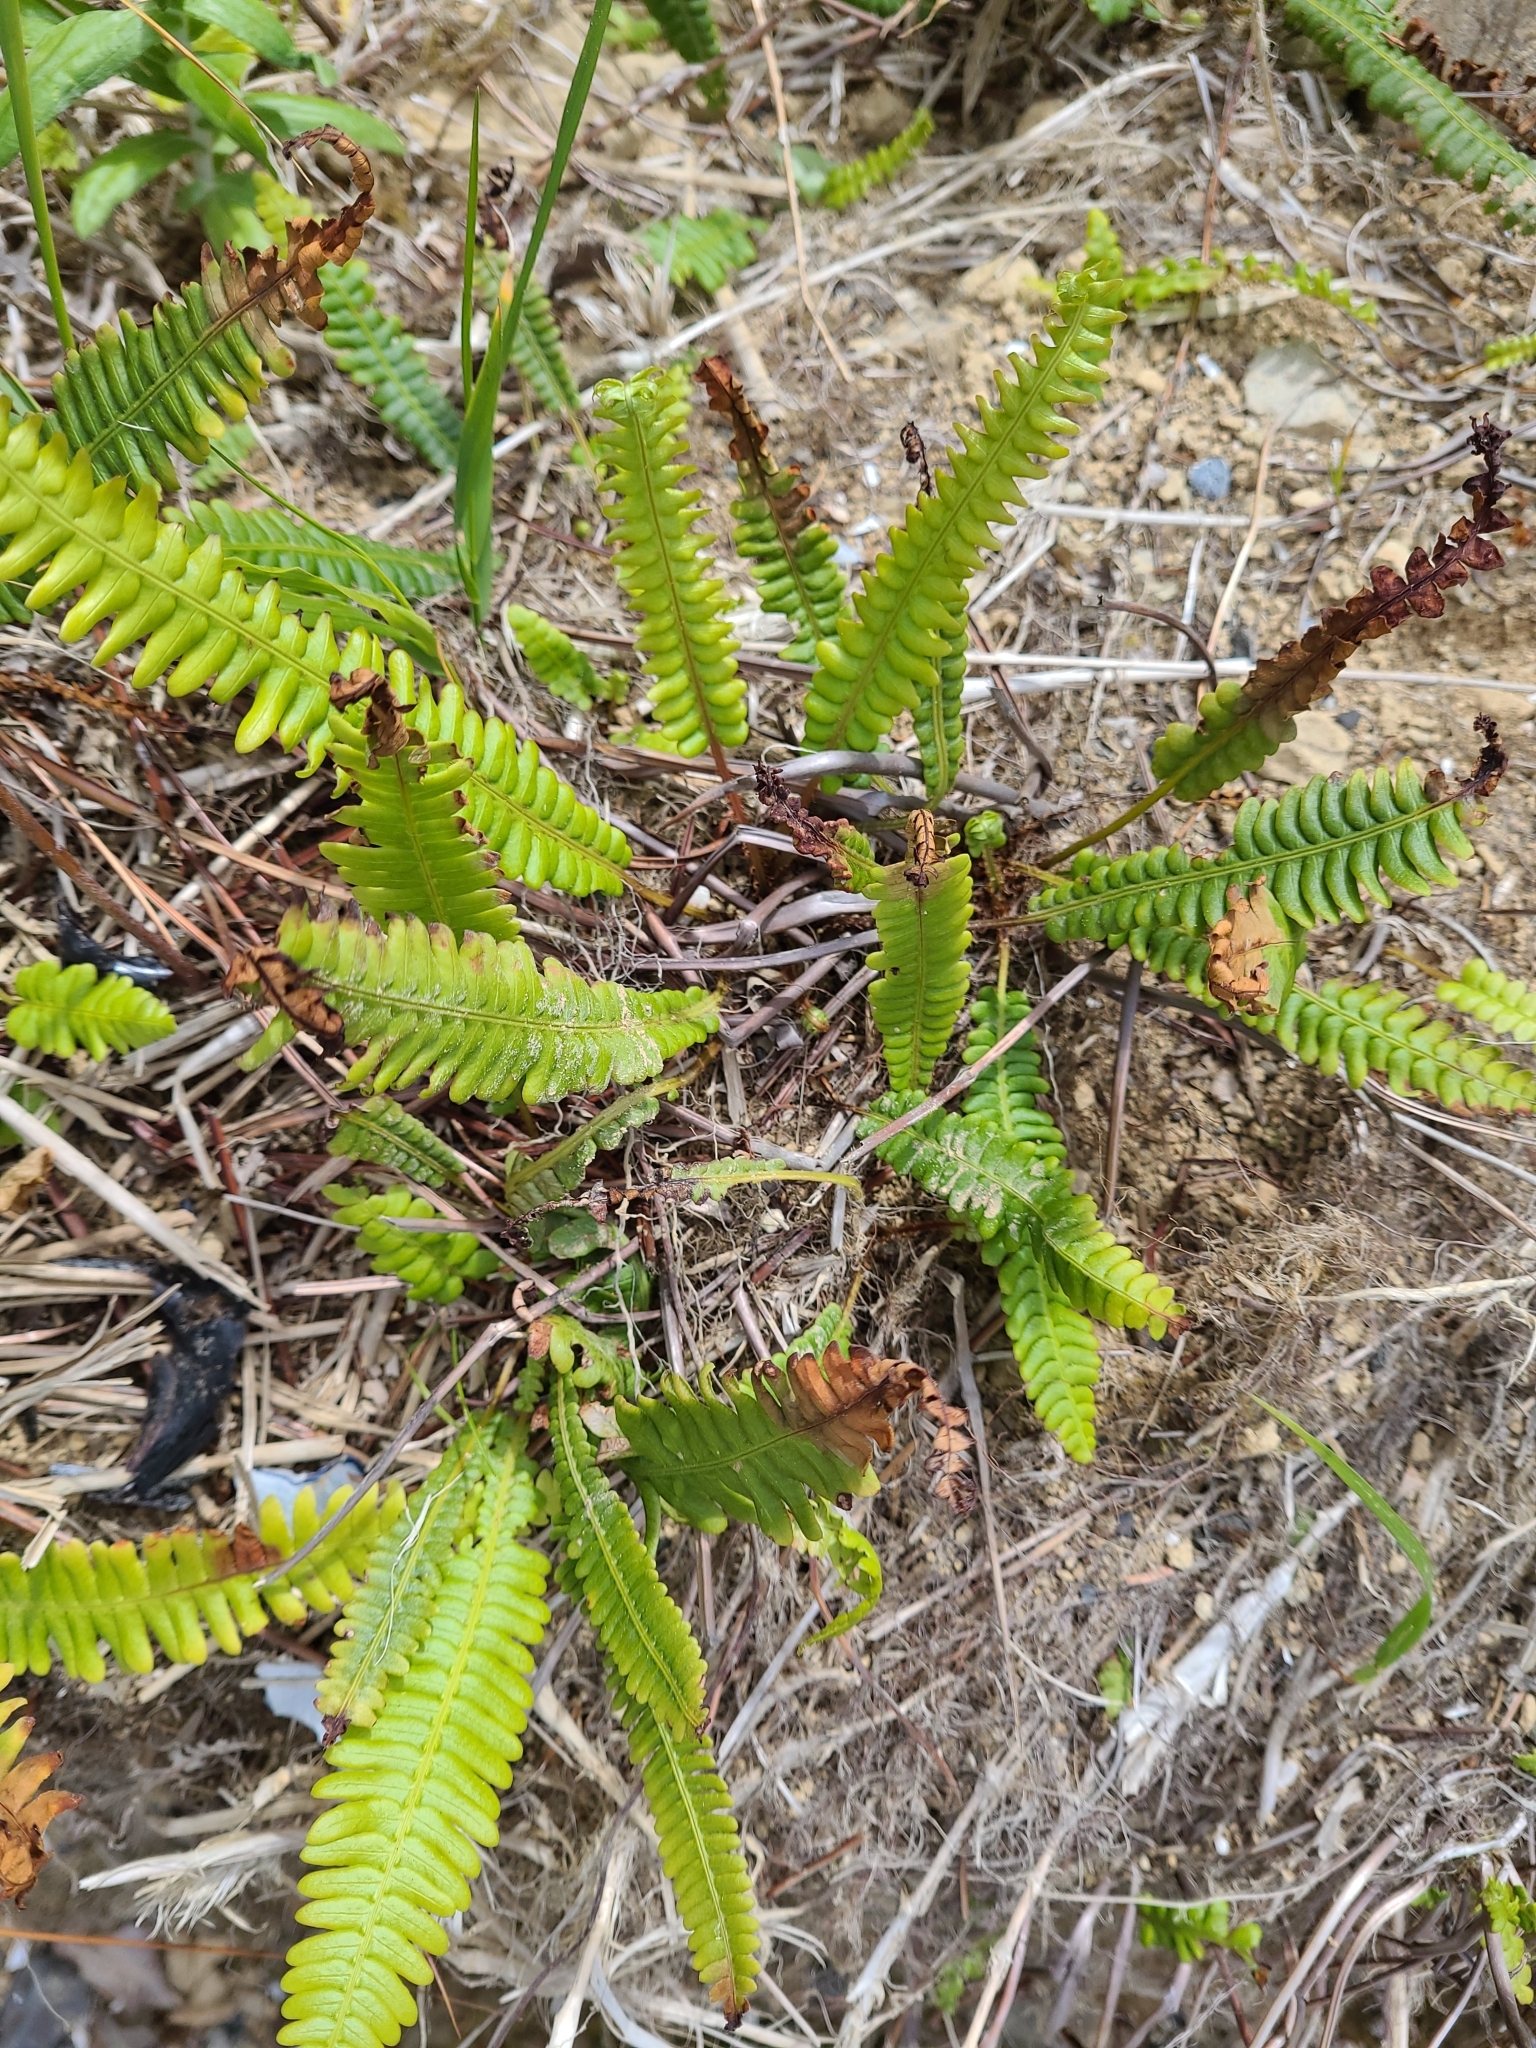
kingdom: Plantae
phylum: Tracheophyta
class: Polypodiopsida
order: Polypodiales
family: Blechnaceae
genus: Struthiopteris
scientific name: Struthiopteris spicant
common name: Deer fern
